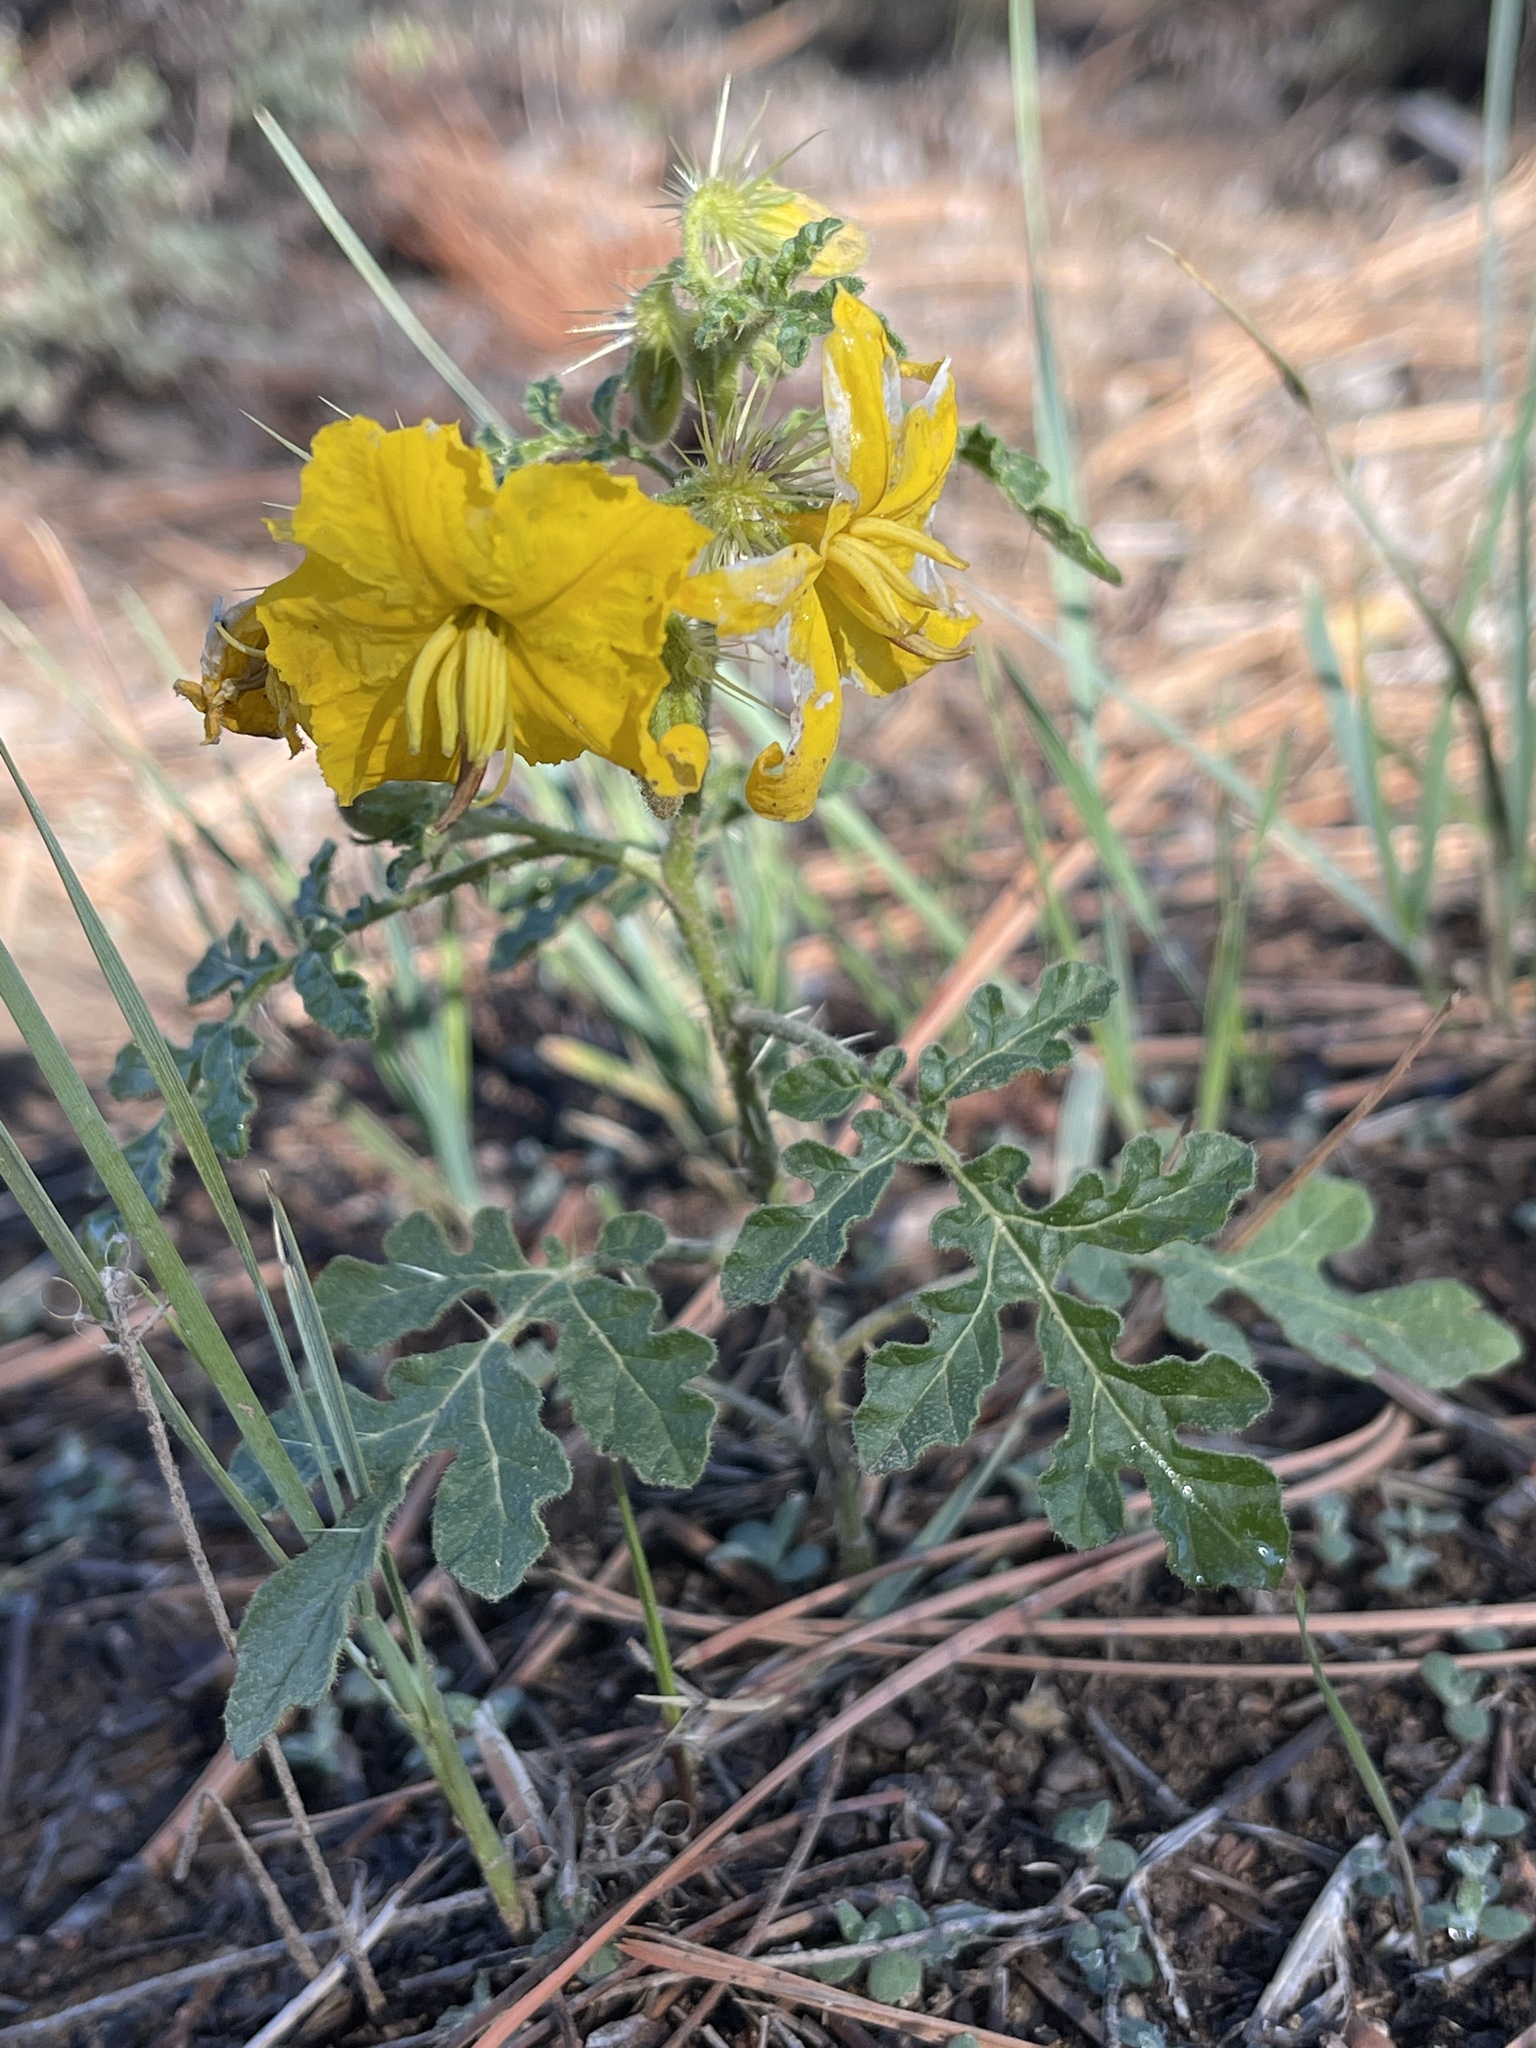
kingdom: Plantae
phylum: Tracheophyta
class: Magnoliopsida
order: Solanales
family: Solanaceae
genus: Solanum
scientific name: Solanum angustifolium
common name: Buffalobur nightshade
